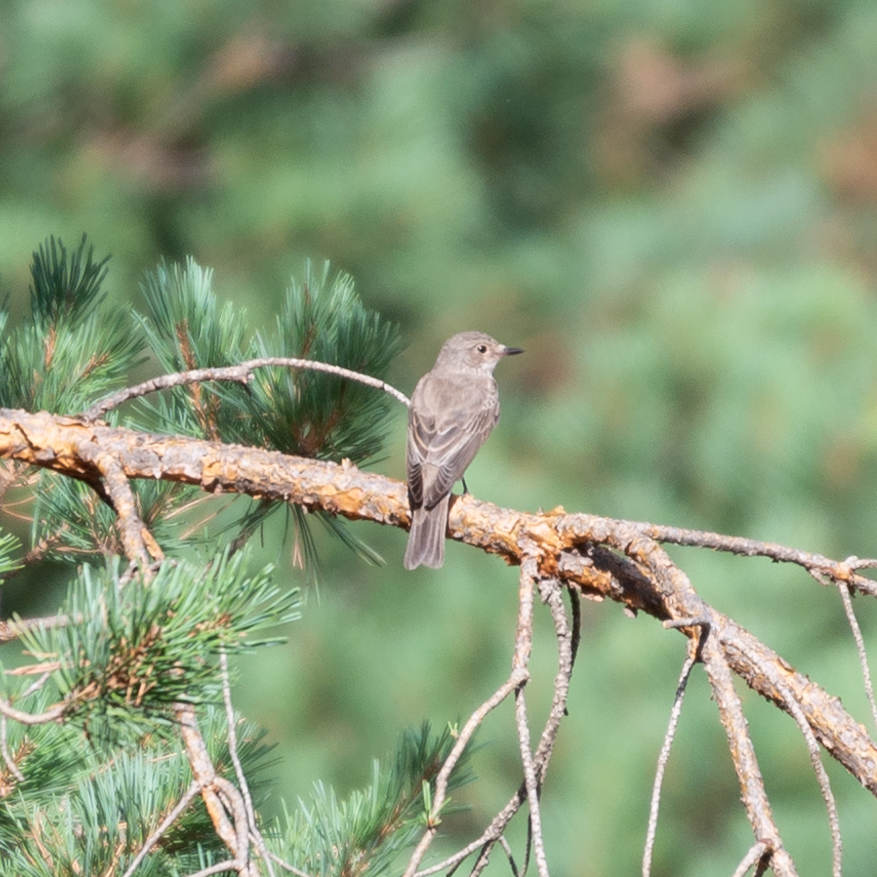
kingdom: Animalia
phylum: Chordata
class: Aves
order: Passeriformes
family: Muscicapidae
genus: Muscicapa
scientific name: Muscicapa striata
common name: Spotted flycatcher
